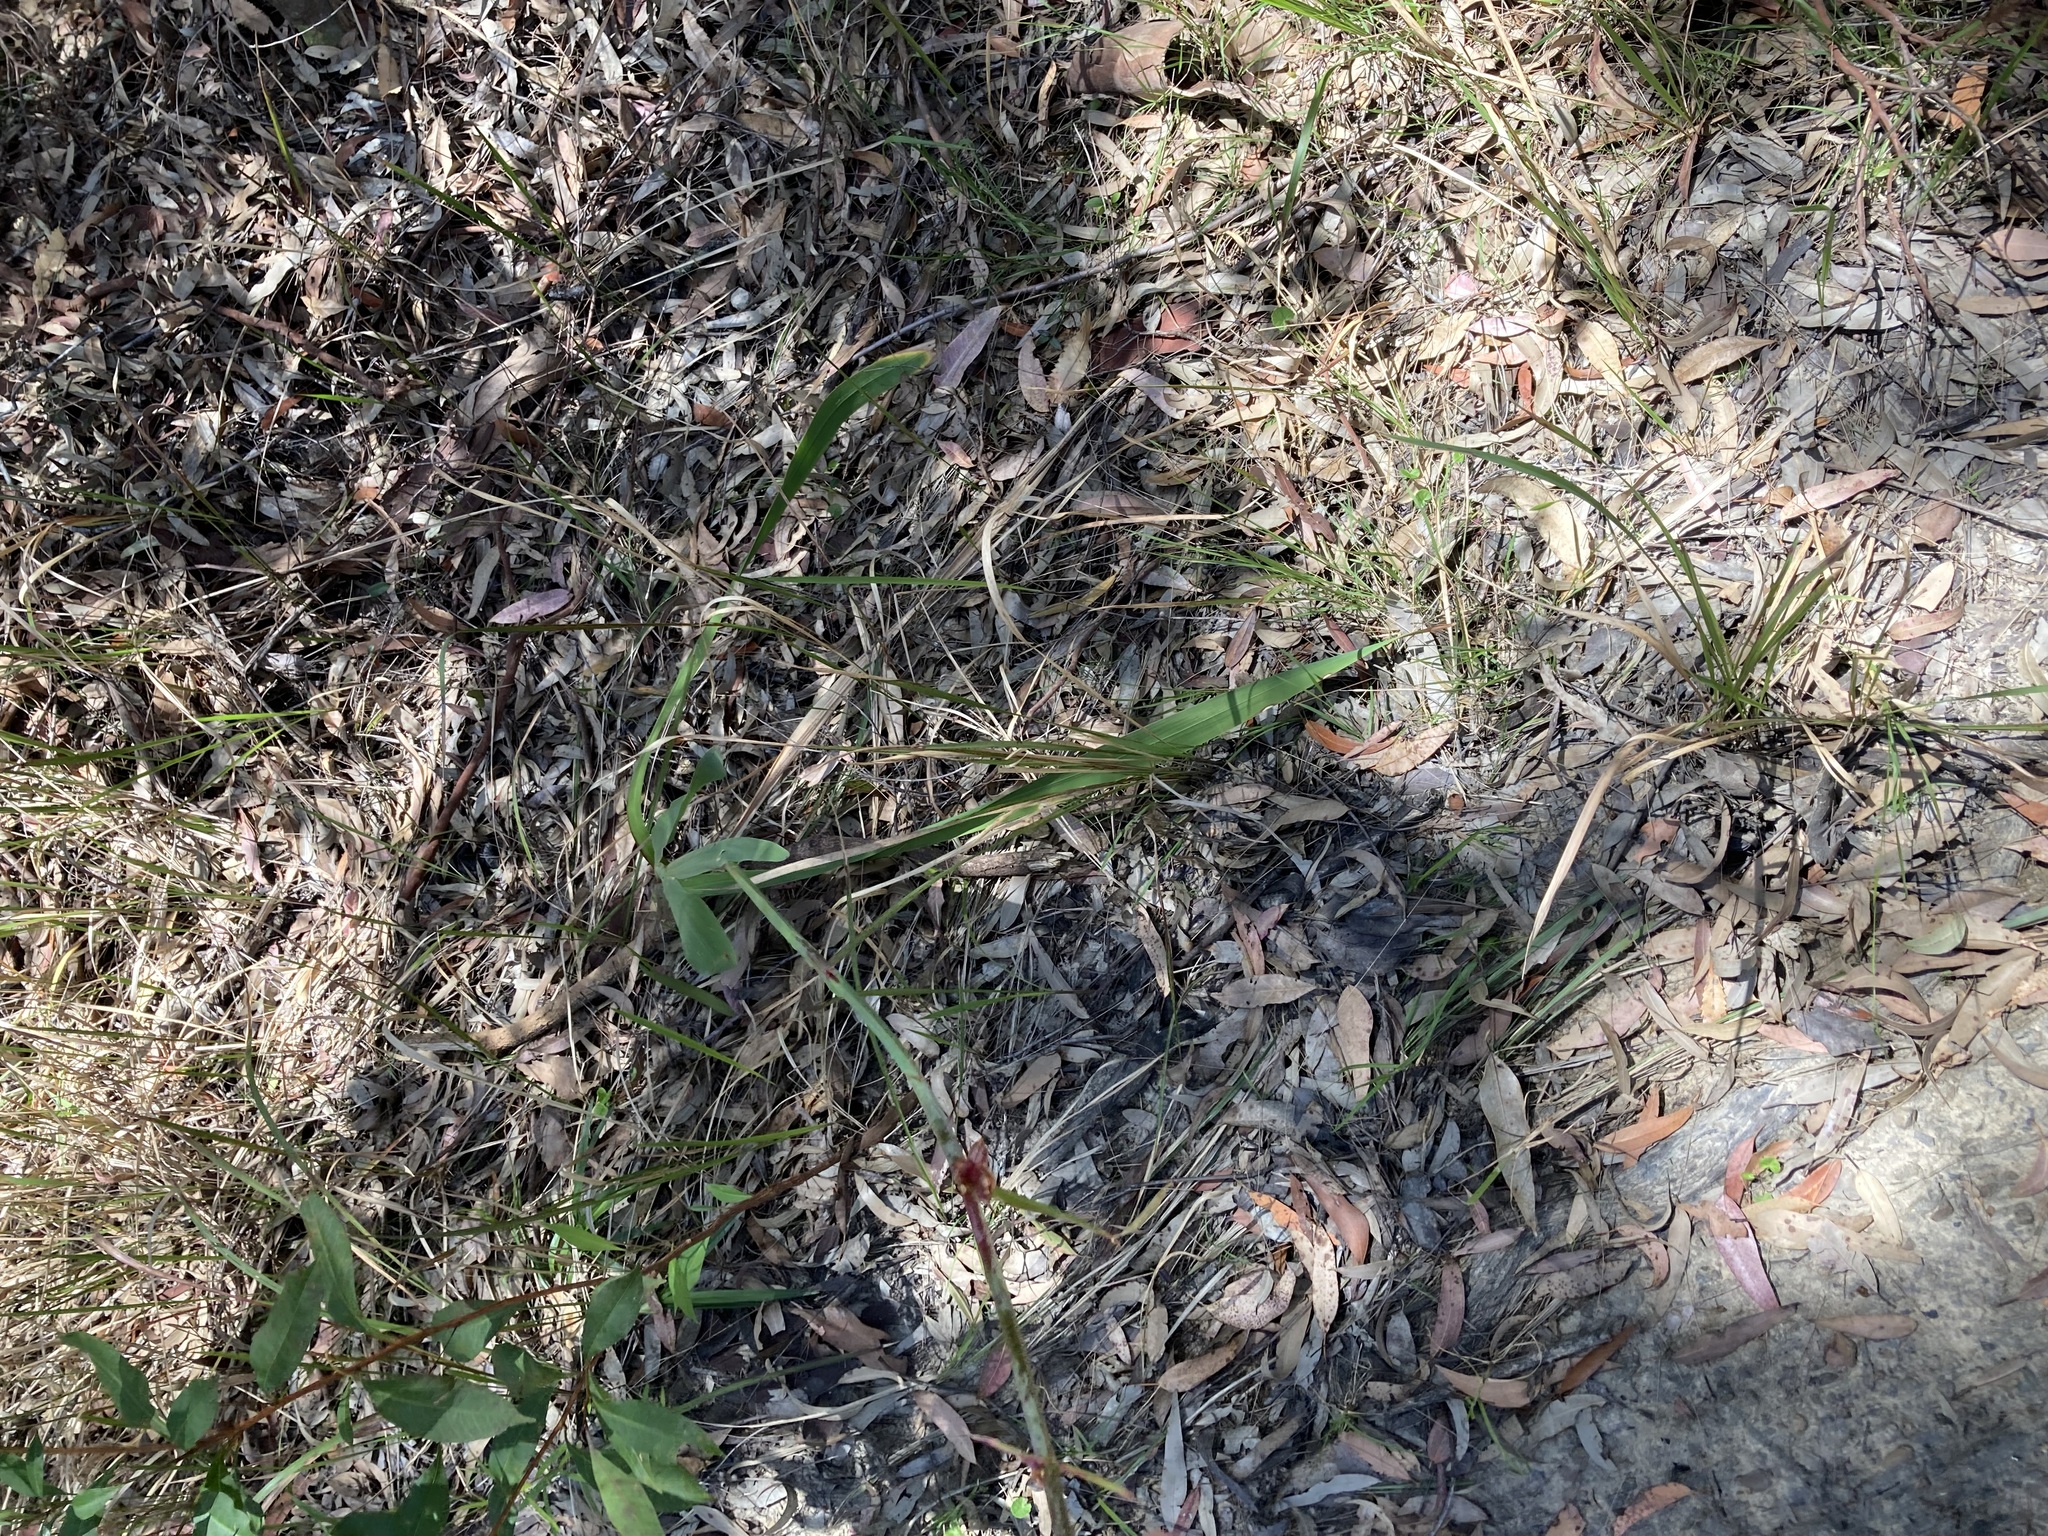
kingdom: Plantae
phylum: Tracheophyta
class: Liliopsida
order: Asparagales
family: Iridaceae
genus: Watsonia
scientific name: Watsonia meriana
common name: Bulbil bugle-lily
